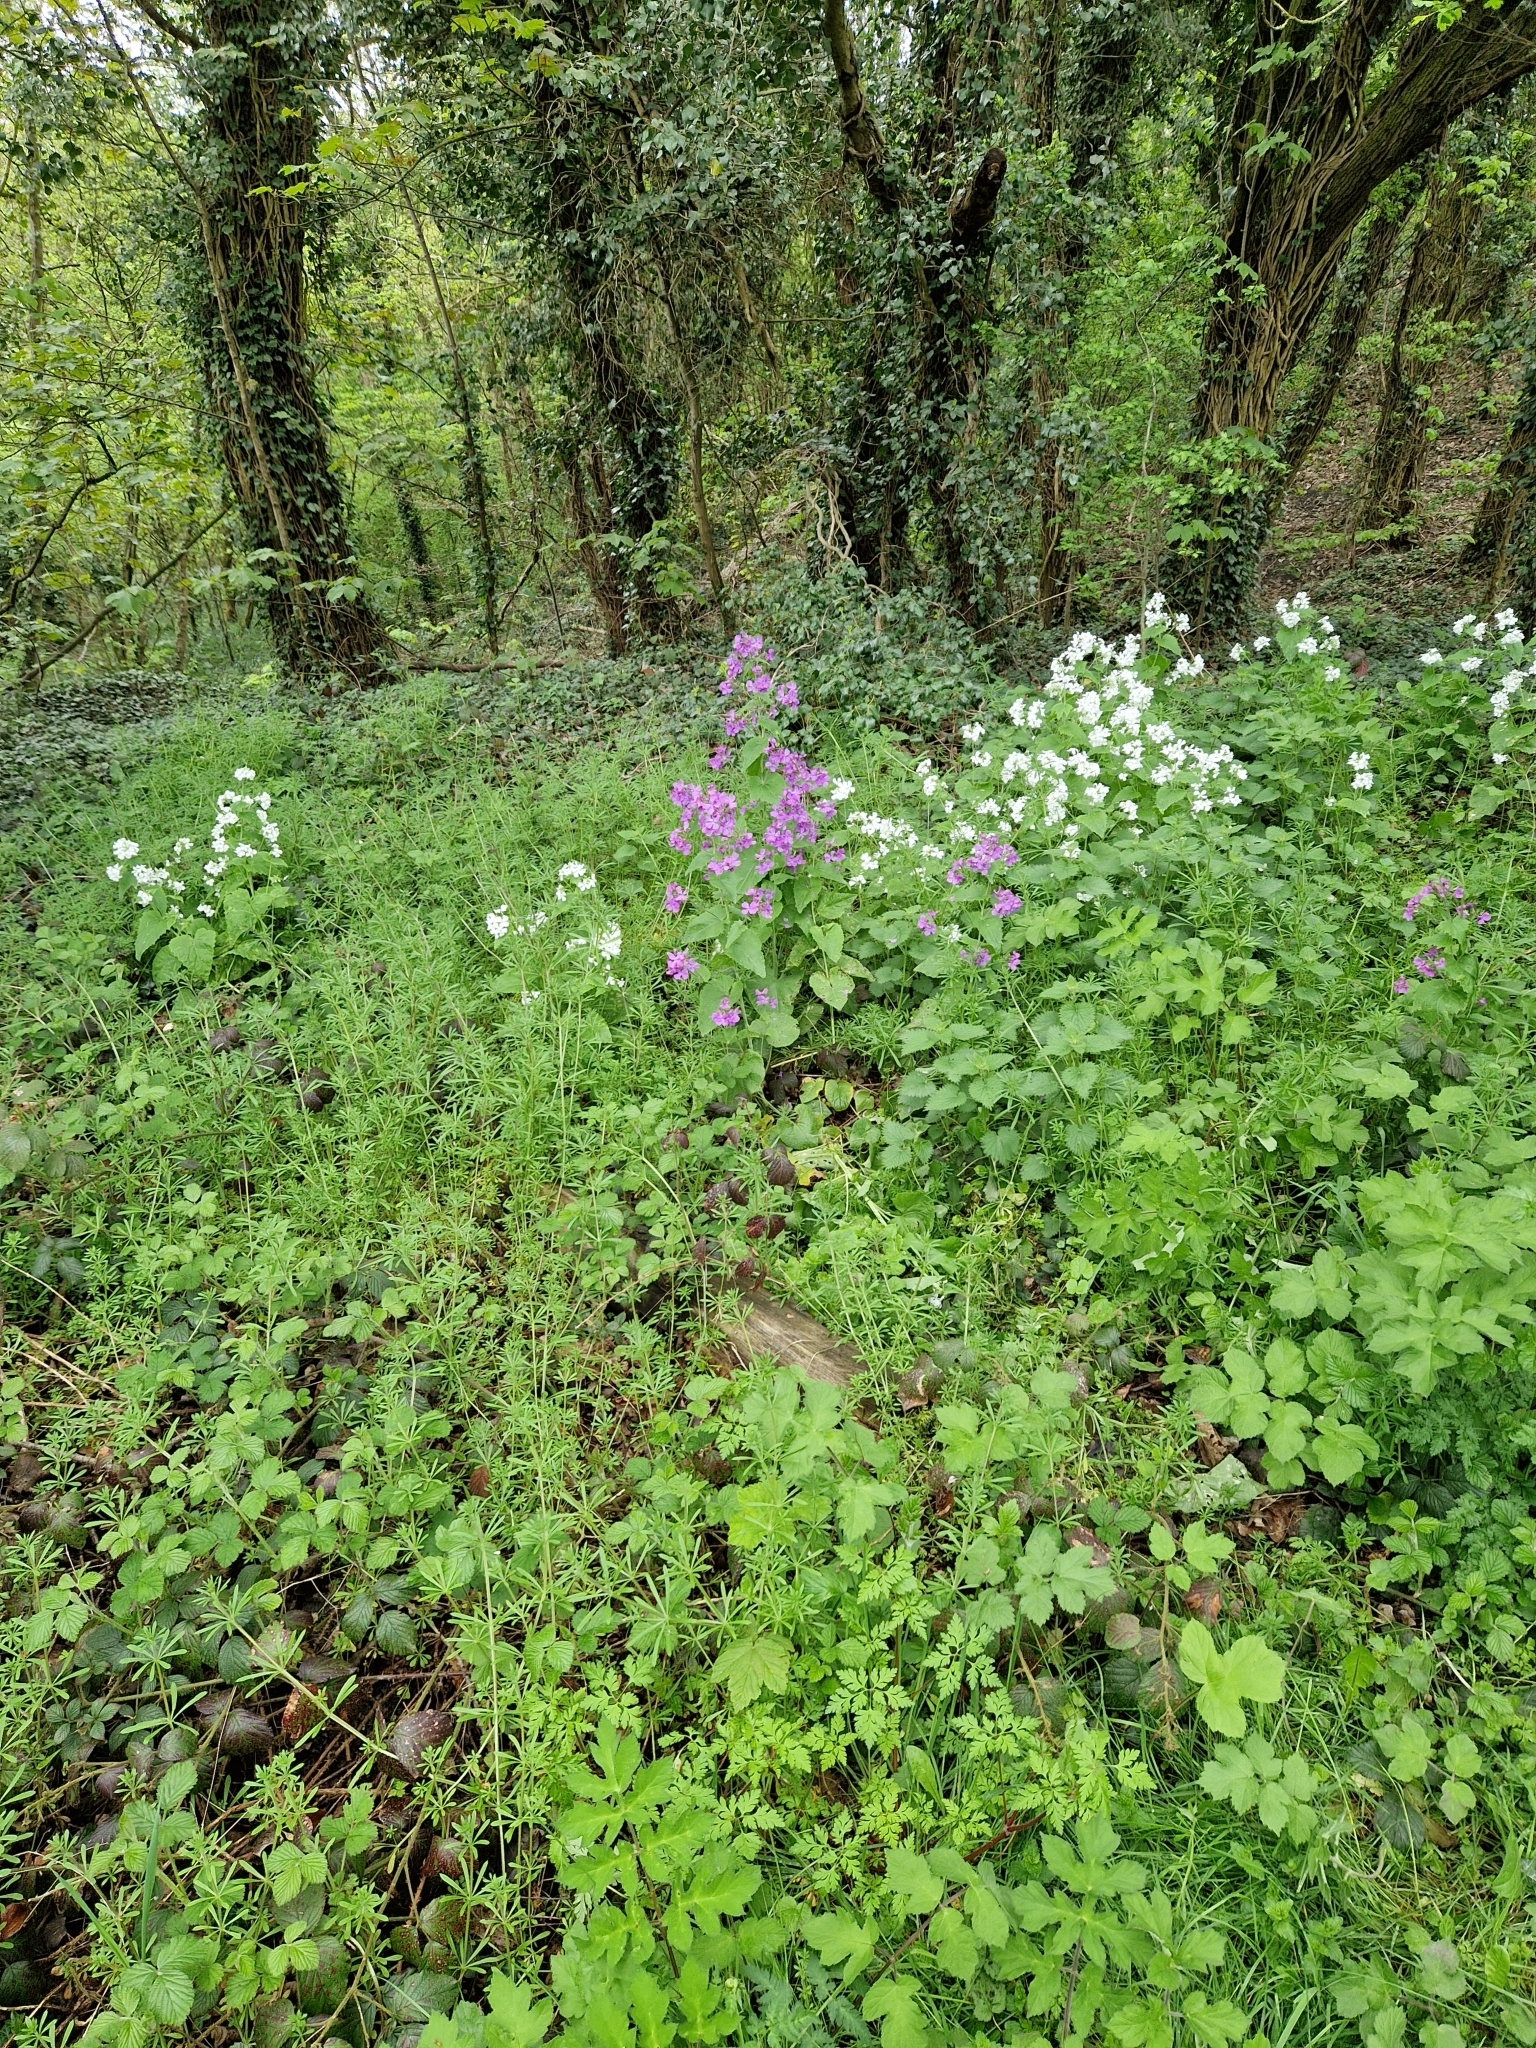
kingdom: Plantae
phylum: Tracheophyta
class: Magnoliopsida
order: Brassicales
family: Brassicaceae
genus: Lunaria
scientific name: Lunaria annua
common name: Honesty
